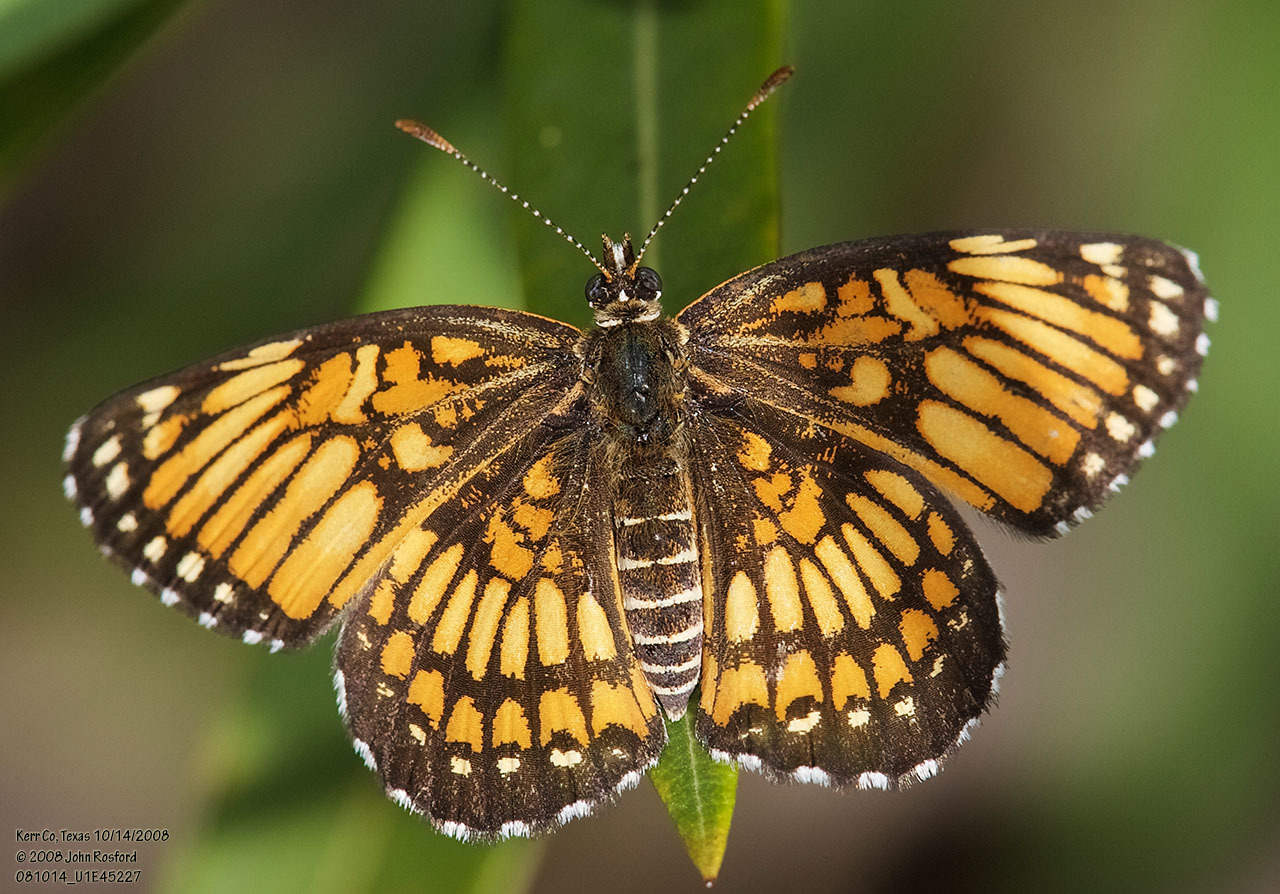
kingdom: Animalia
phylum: Arthropoda
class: Insecta
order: Lepidoptera
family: Nymphalidae
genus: Thessalia
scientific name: Thessalia theona
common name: Nymphalid moth
